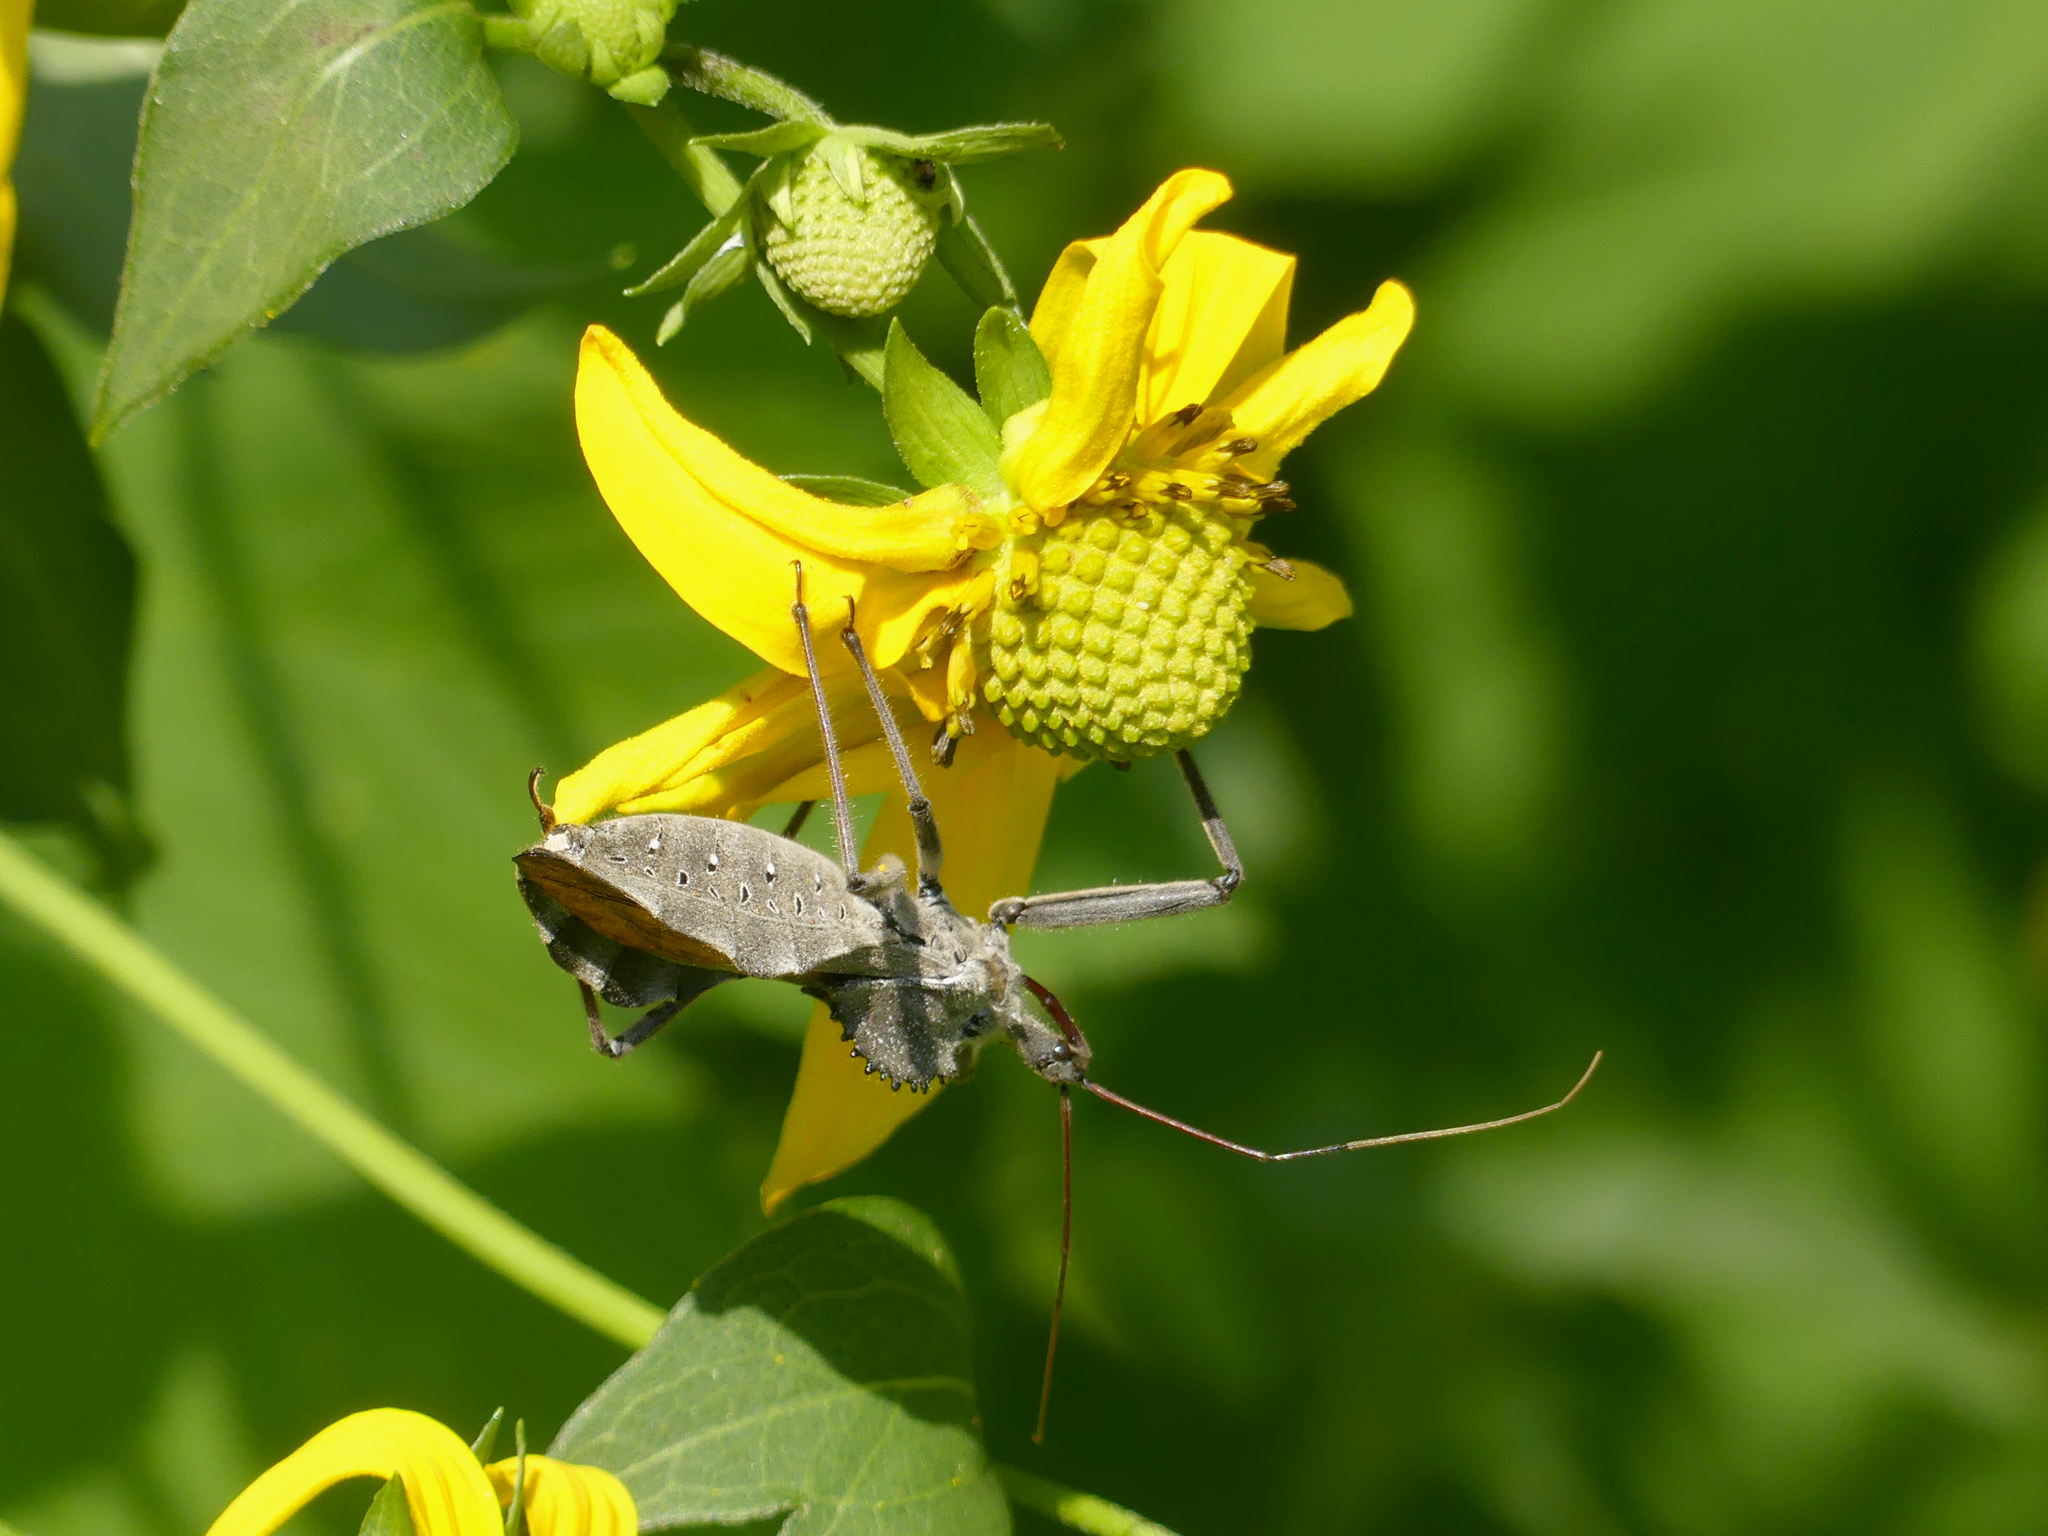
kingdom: Animalia
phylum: Arthropoda
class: Insecta
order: Hemiptera
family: Reduviidae
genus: Arilus
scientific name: Arilus cristatus
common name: North american wheel bug
